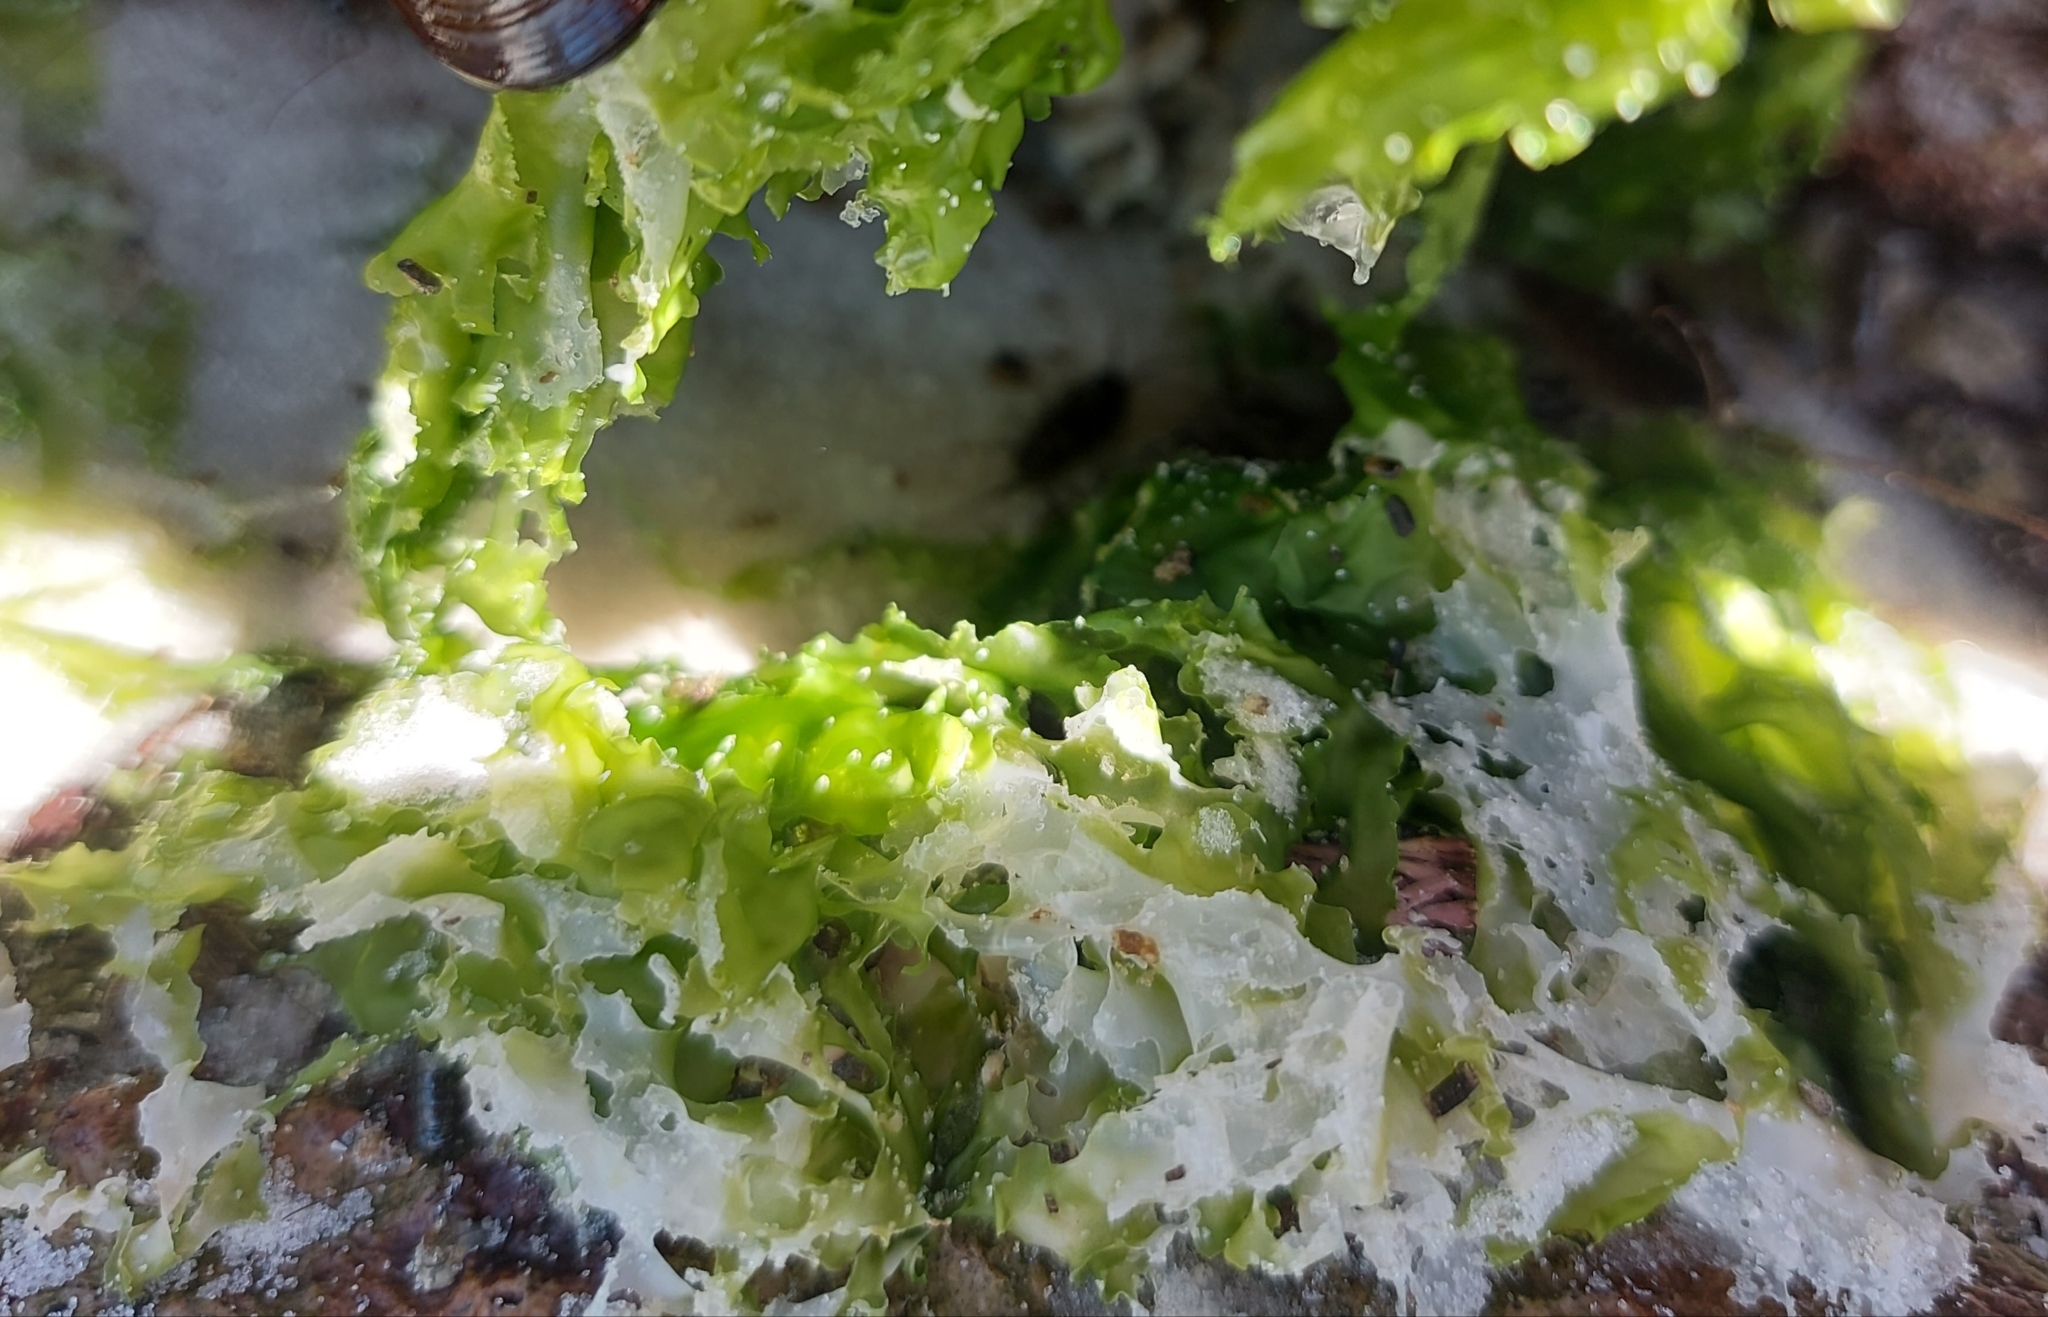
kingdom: Plantae
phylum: Chlorophyta
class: Ulvophyceae
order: Ulvales
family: Ulvaceae
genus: Ulva
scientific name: Ulva lactuca
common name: Sea lettuce
